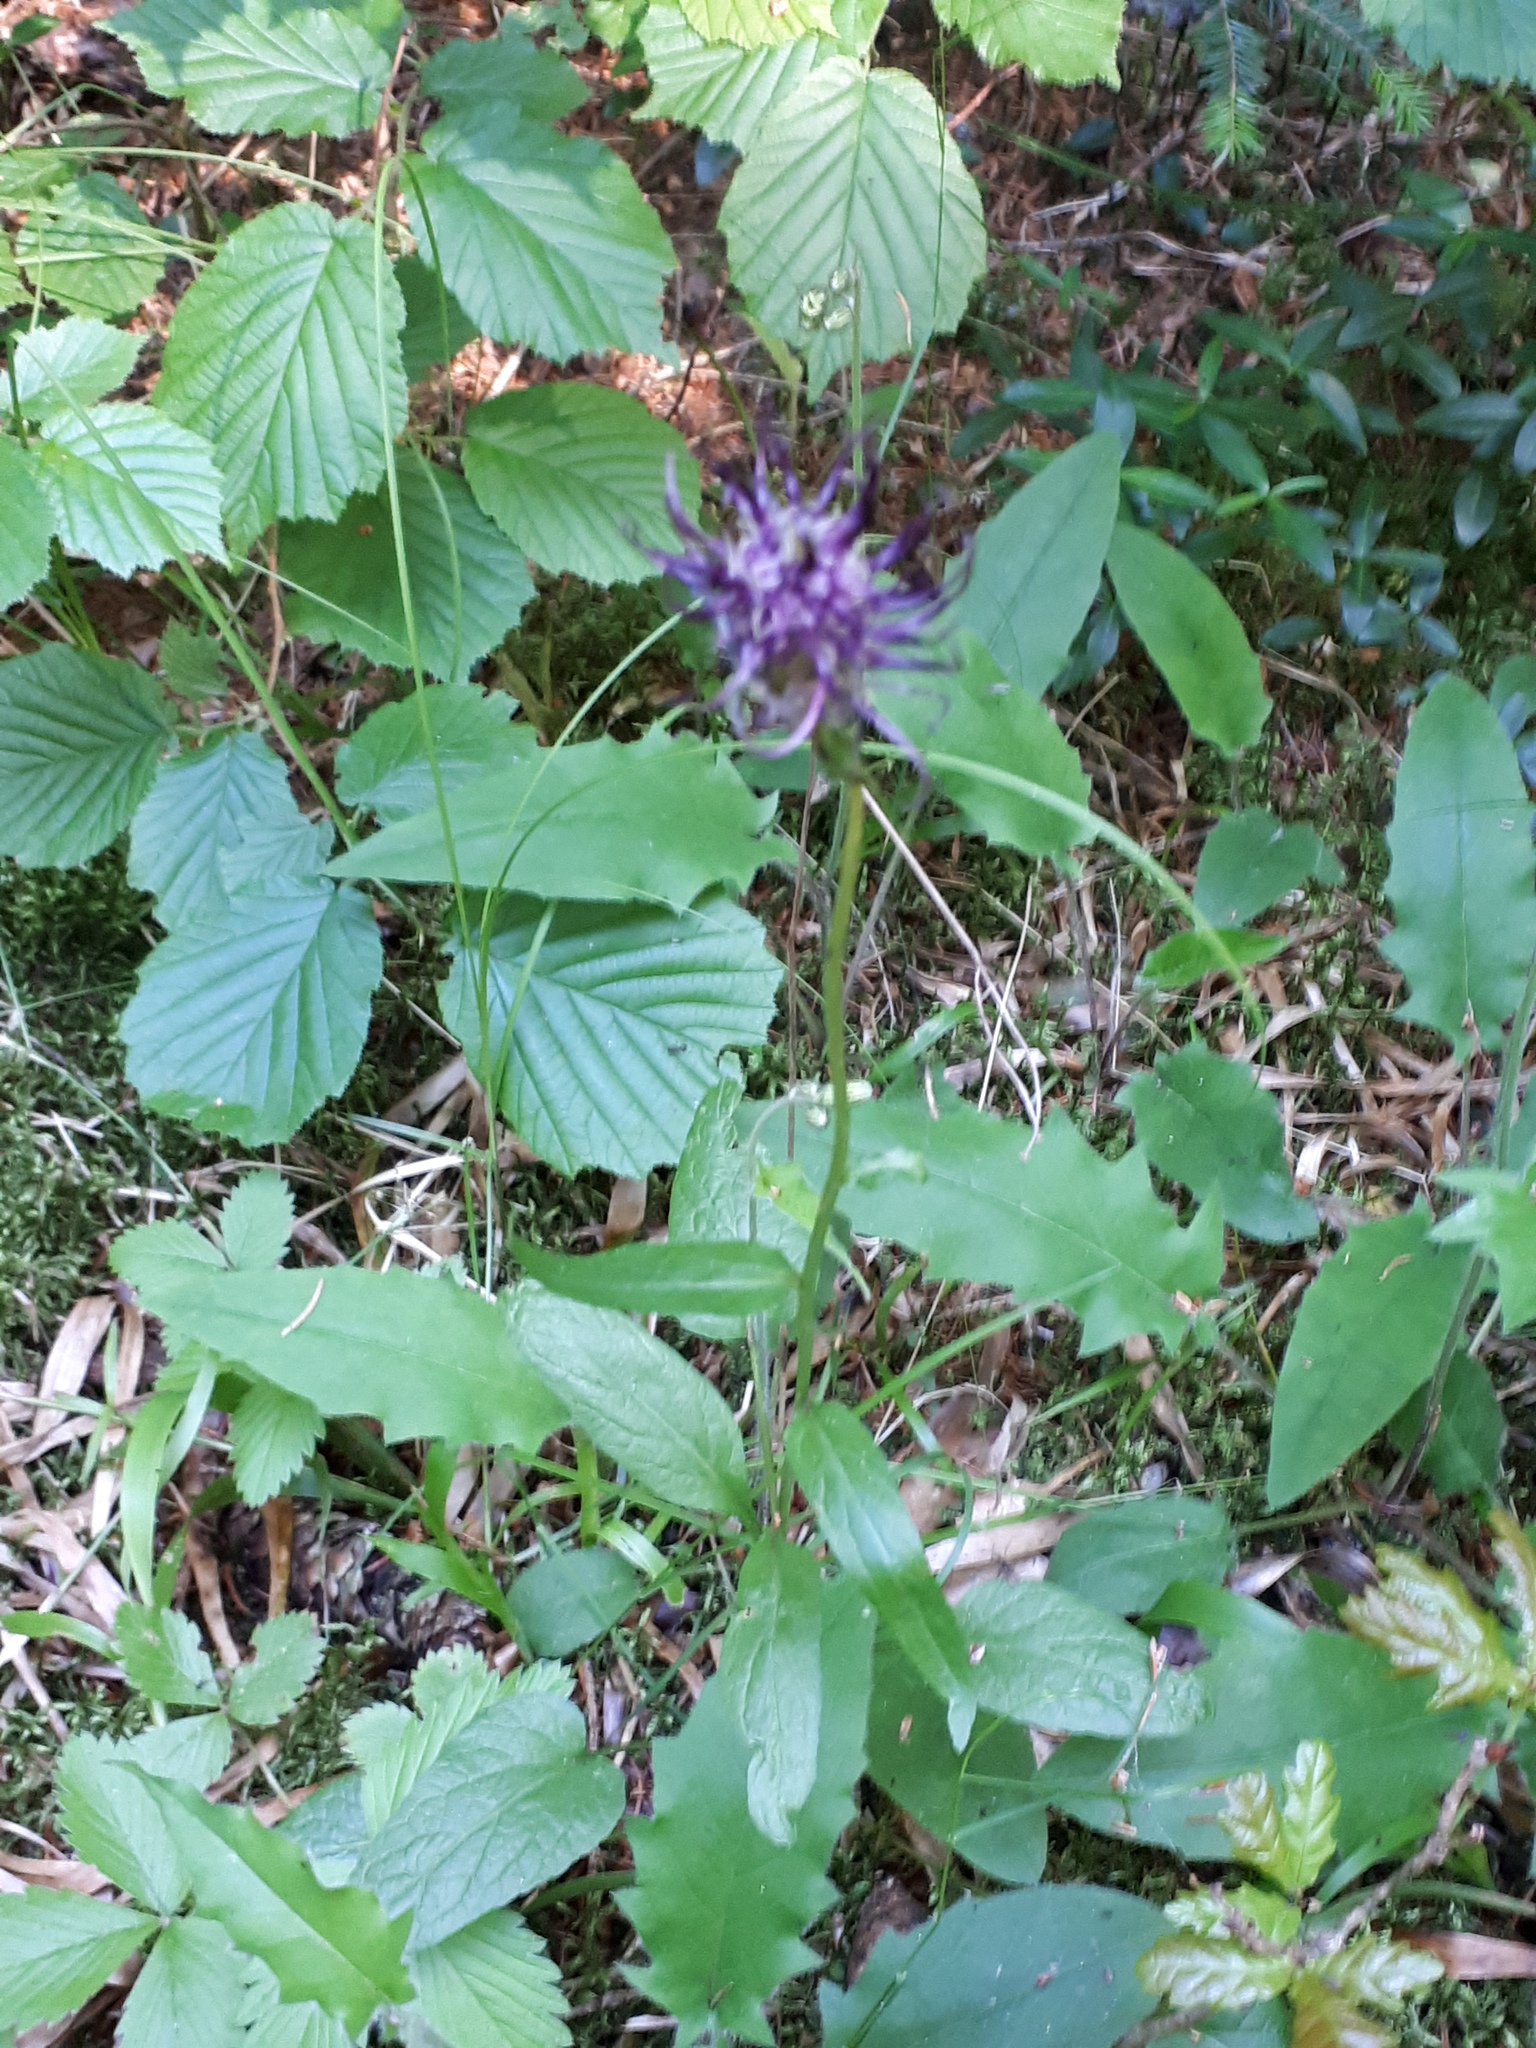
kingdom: Plantae
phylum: Tracheophyta
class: Magnoliopsida
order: Asterales
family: Campanulaceae
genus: Phyteuma
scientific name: Phyteuma nigrum
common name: Black rampion
